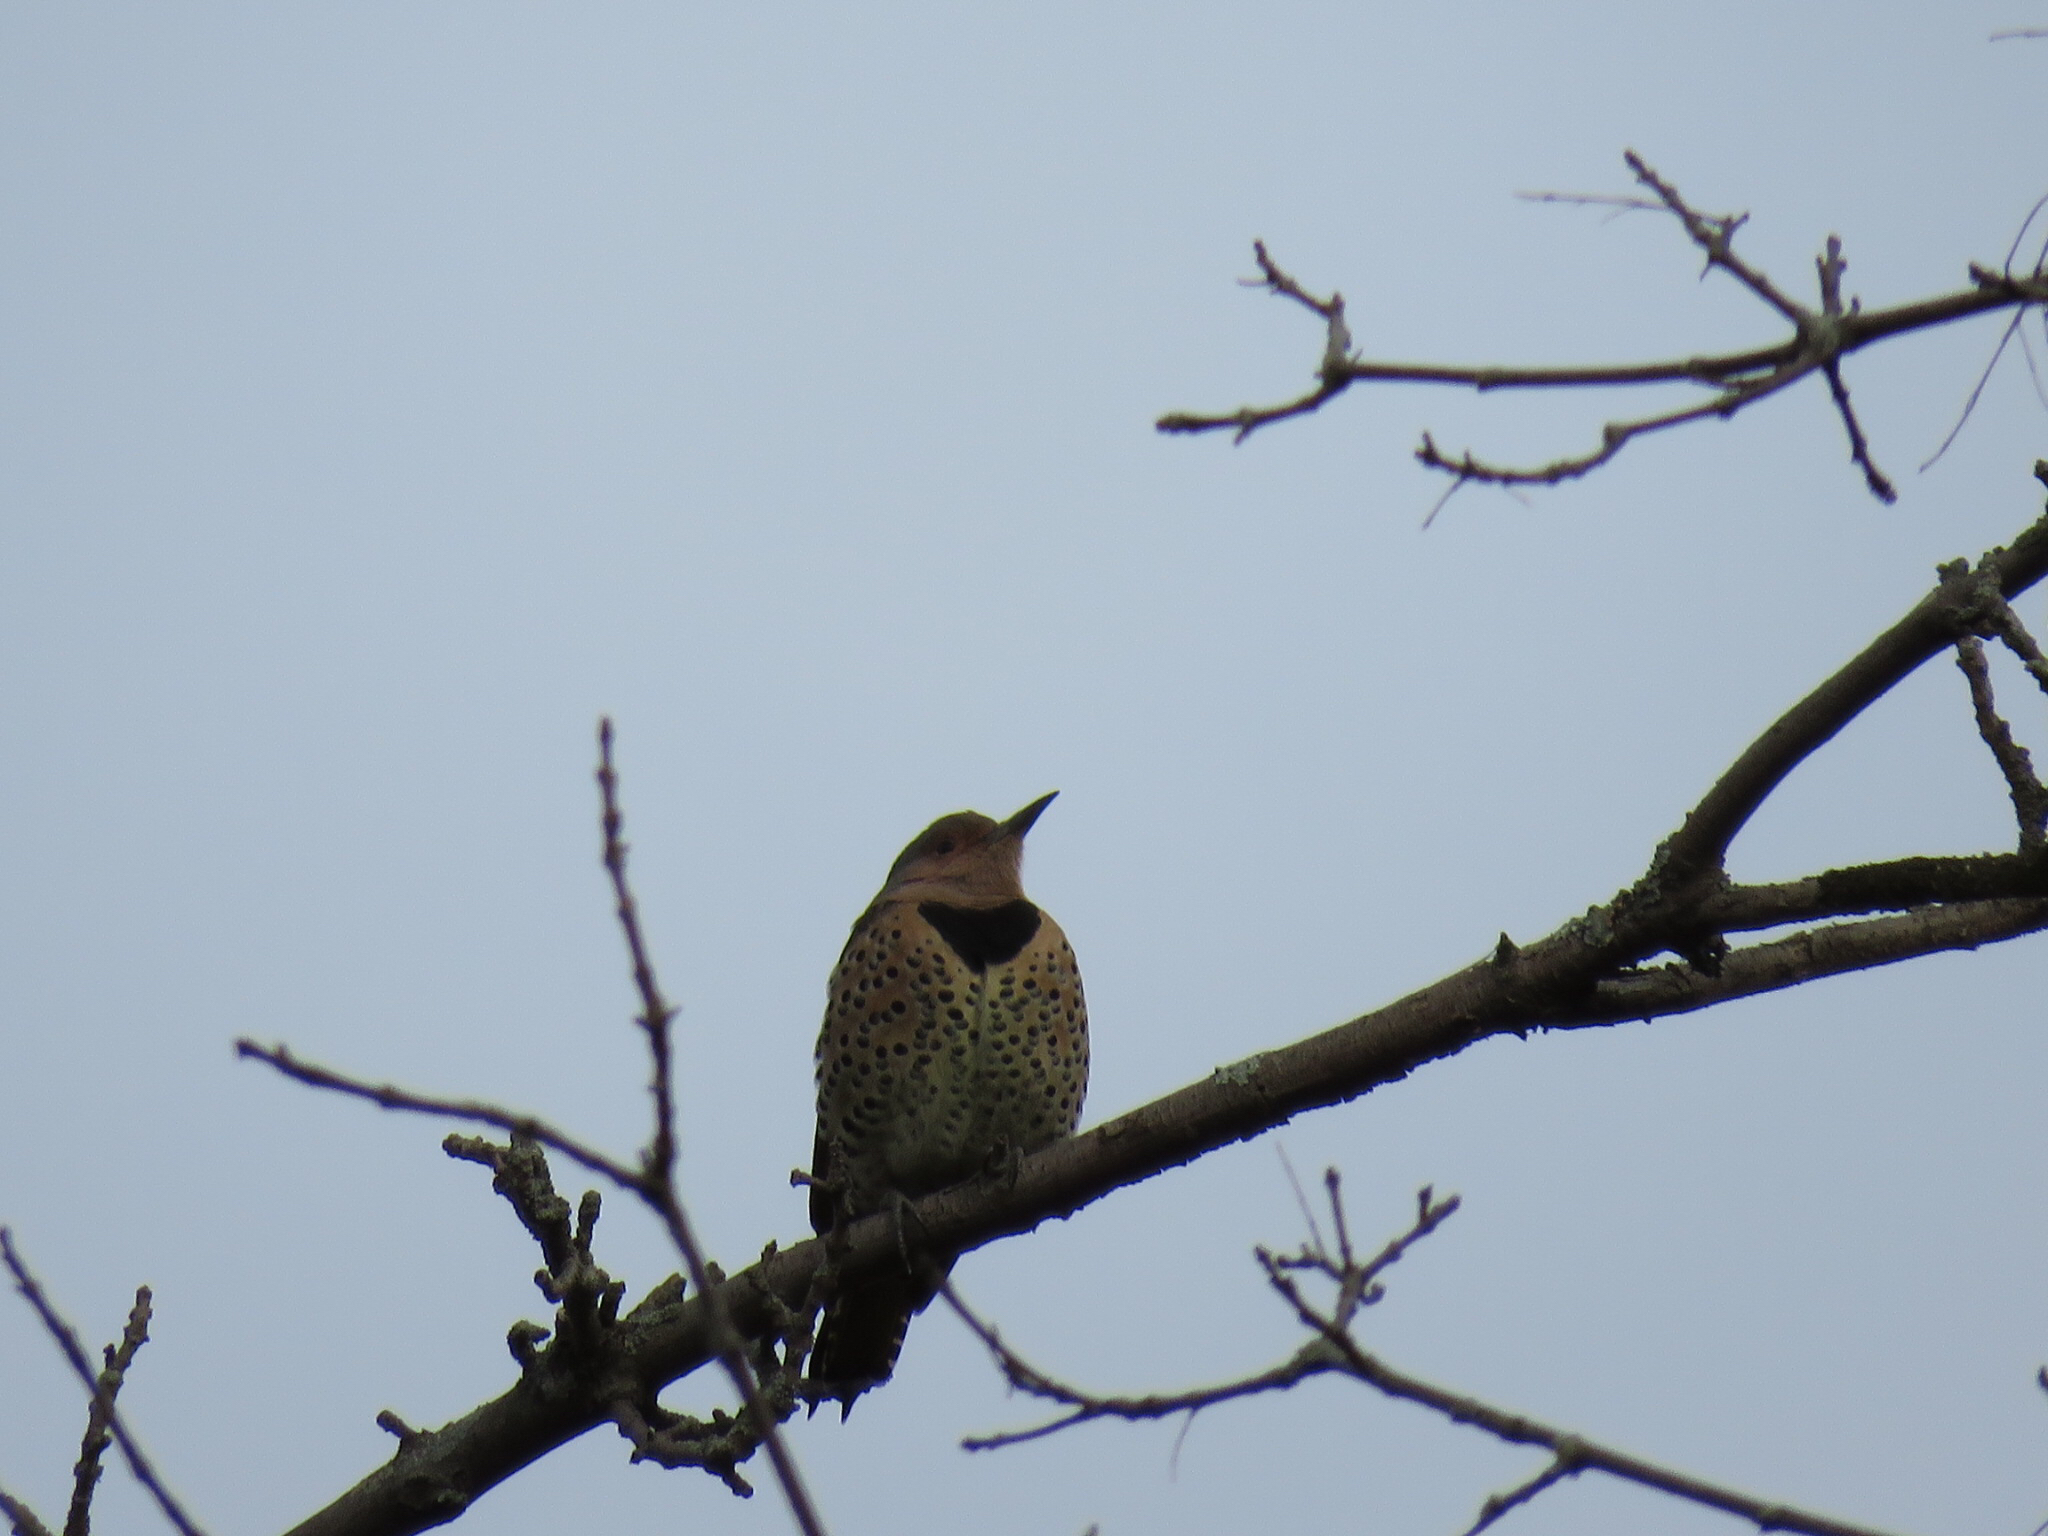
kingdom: Animalia
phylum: Chordata
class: Aves
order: Piciformes
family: Picidae
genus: Colaptes
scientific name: Colaptes auratus
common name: Northern flicker
